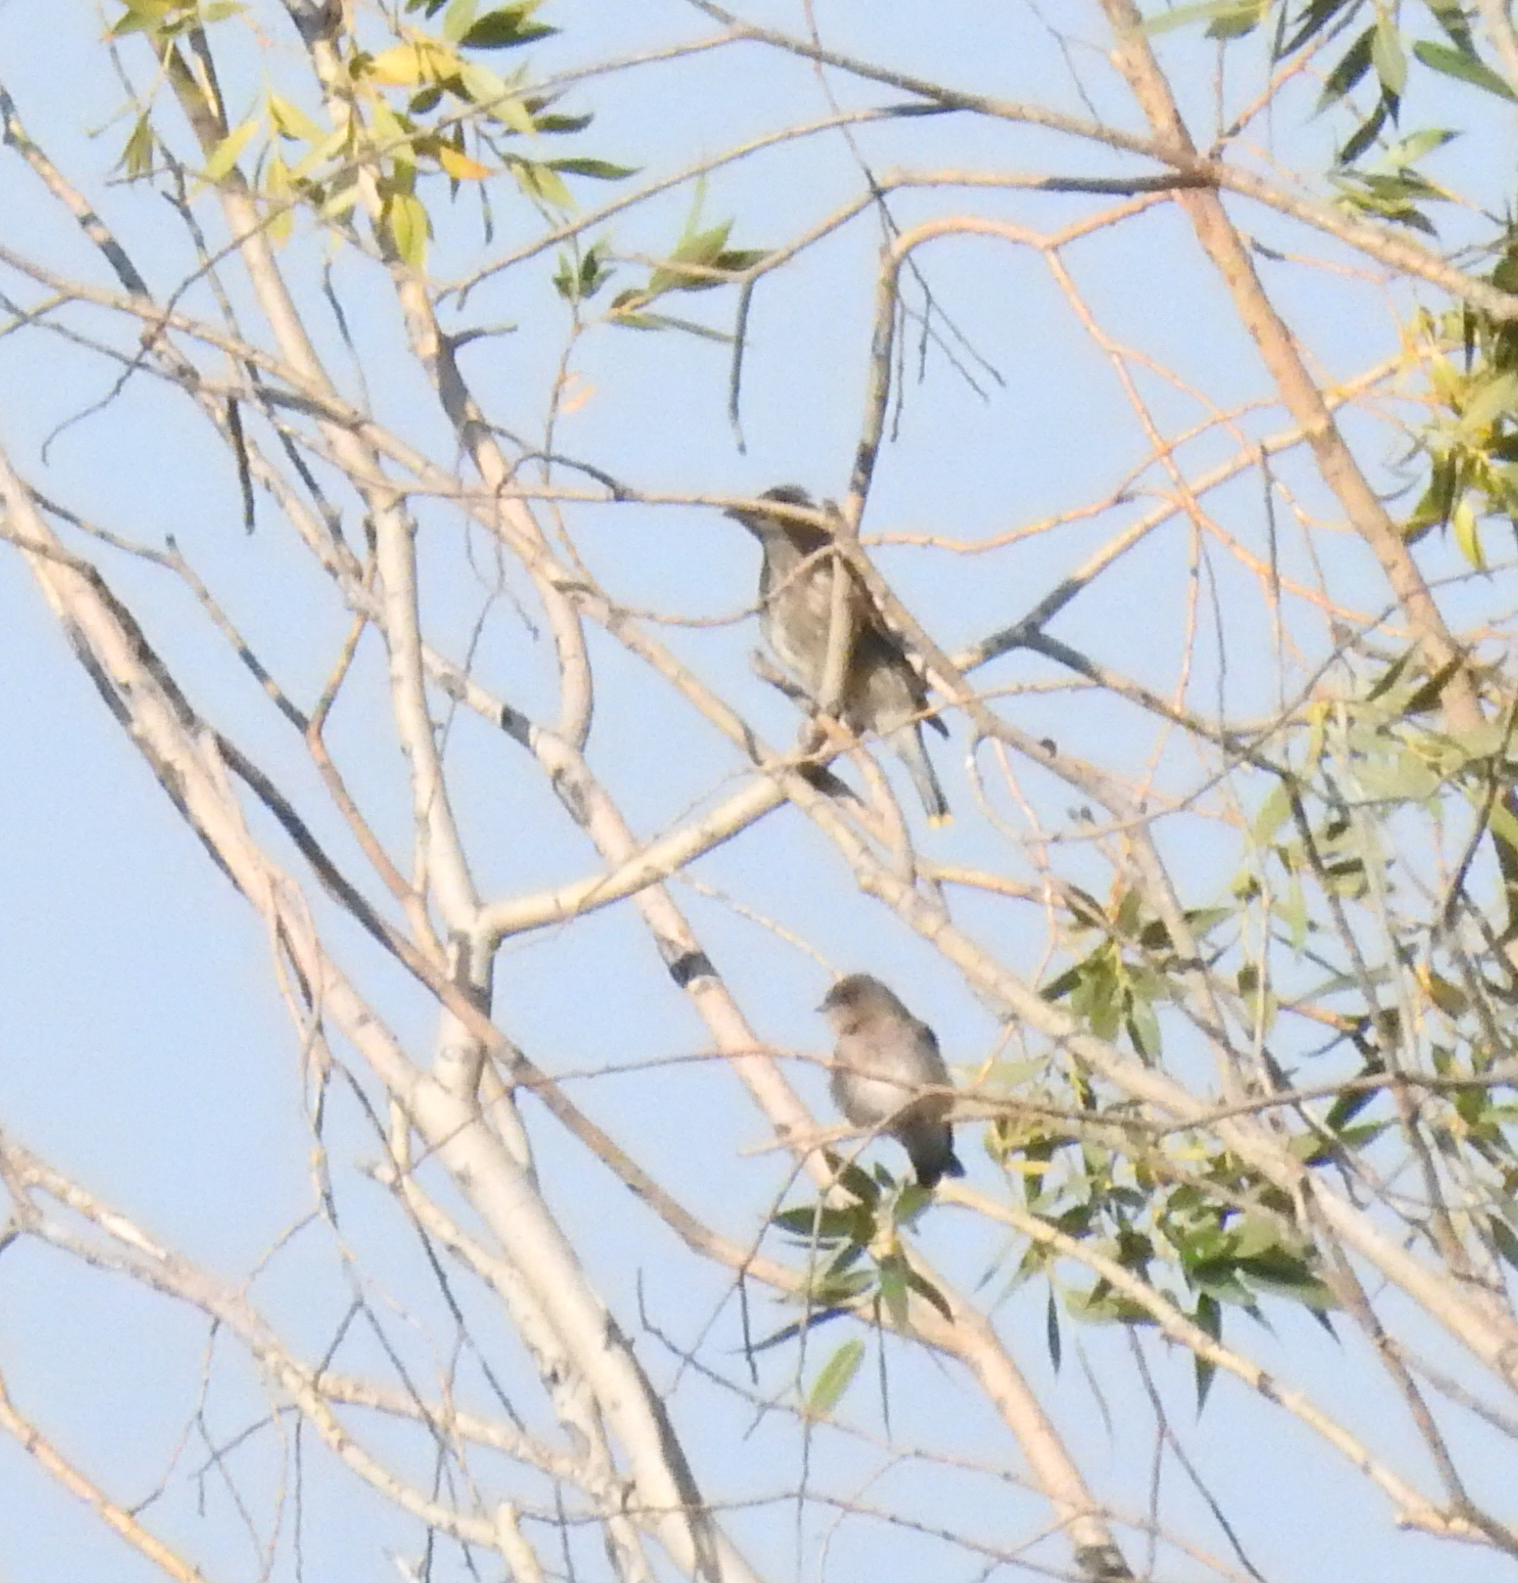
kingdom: Animalia
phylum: Chordata
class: Aves
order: Passeriformes
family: Bombycillidae
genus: Bombycilla
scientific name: Bombycilla cedrorum
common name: Cedar waxwing
